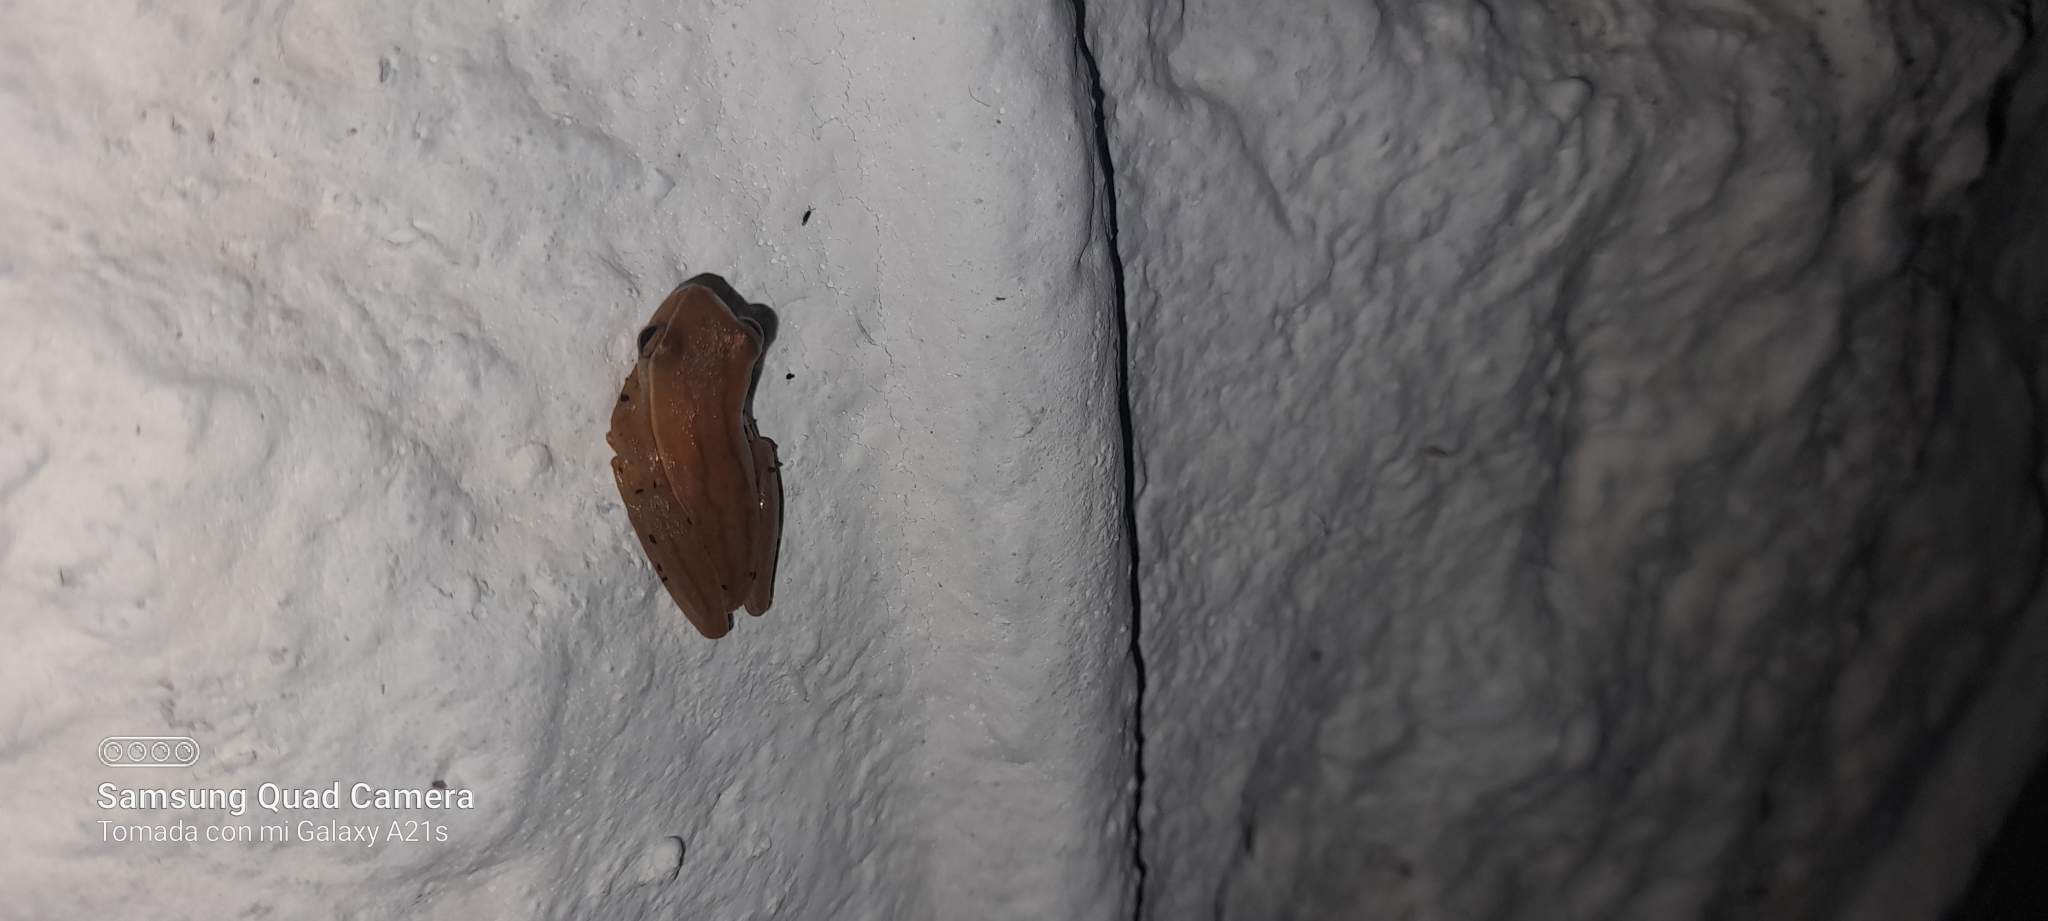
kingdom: Animalia
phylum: Chordata
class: Amphibia
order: Anura
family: Hylidae
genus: Dendropsophus
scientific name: Dendropsophus microcephalus
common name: Small-headed treefrog
